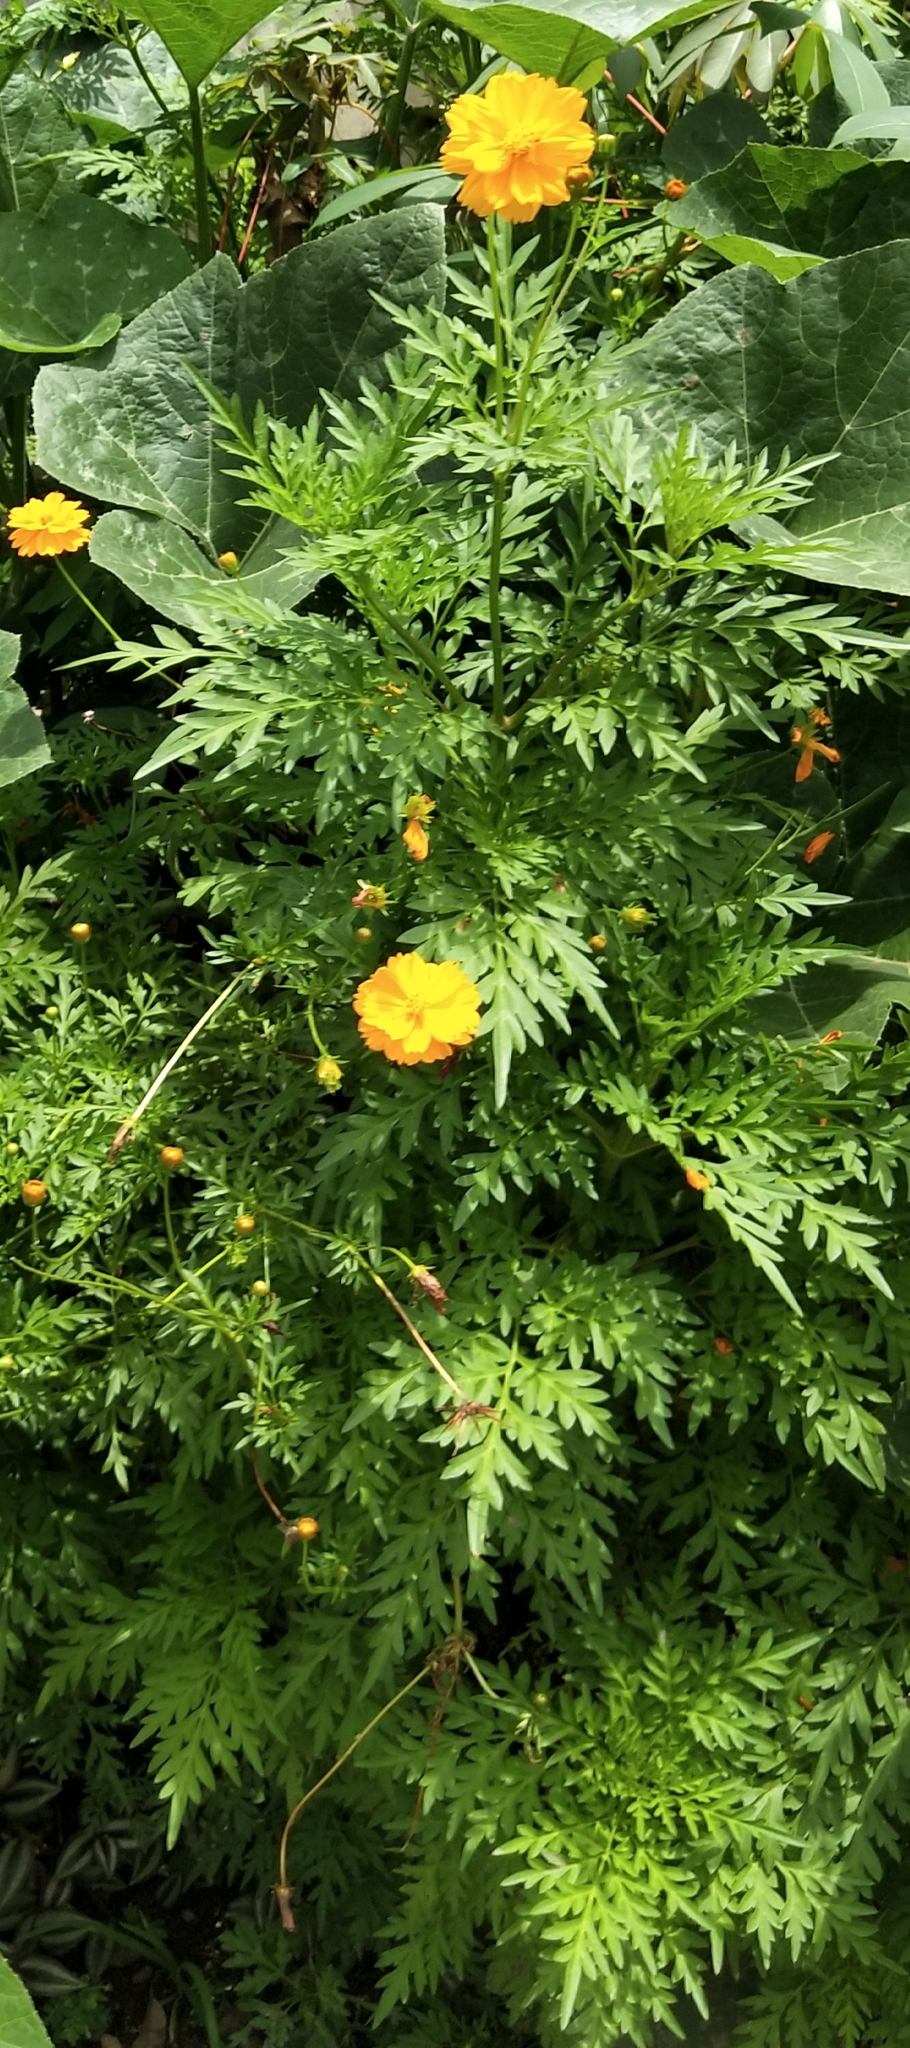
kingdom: Plantae
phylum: Tracheophyta
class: Magnoliopsida
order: Asterales
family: Asteraceae
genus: Cosmos
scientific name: Cosmos sulphureus
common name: Sulphur cosmos
